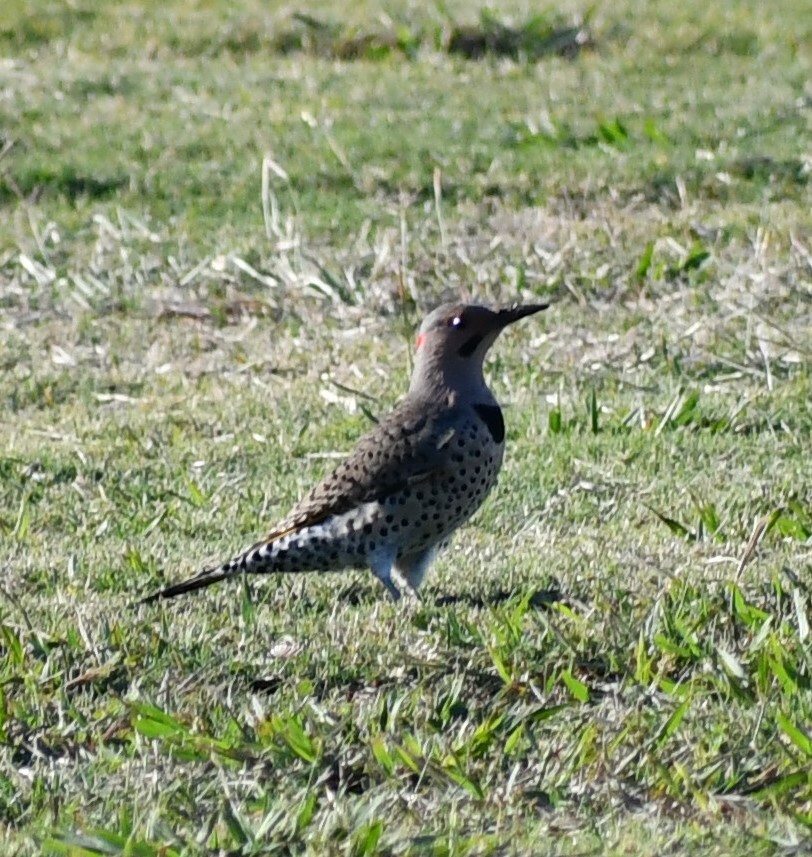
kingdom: Animalia
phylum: Chordata
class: Aves
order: Piciformes
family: Picidae
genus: Colaptes
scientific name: Colaptes auratus
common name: Northern flicker
